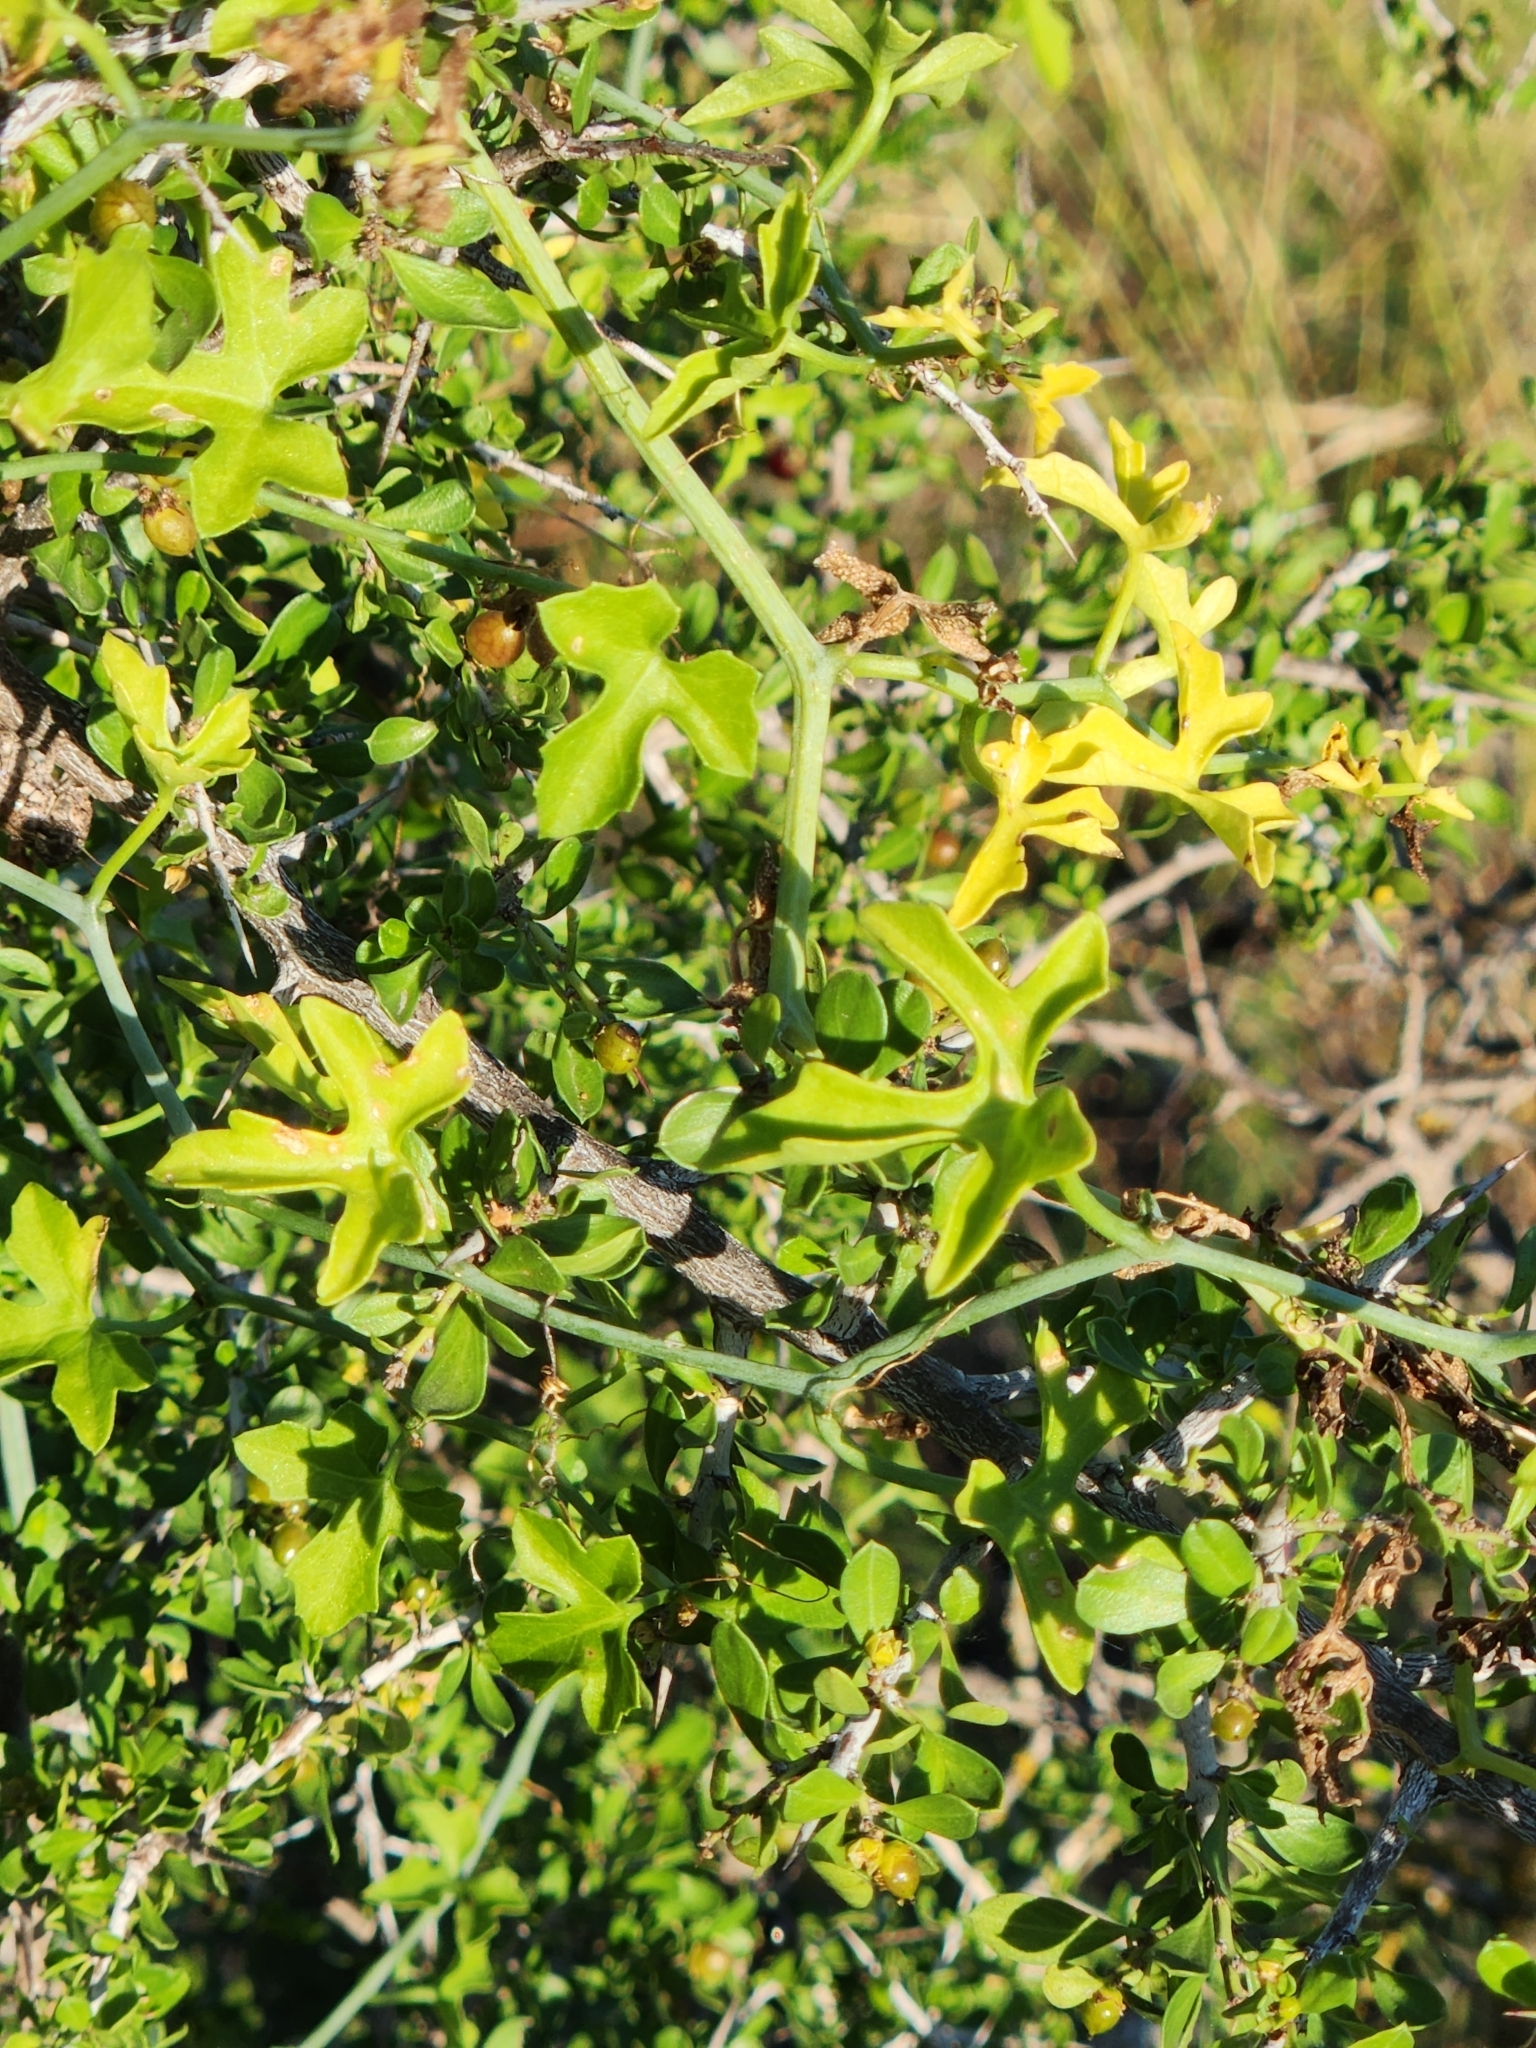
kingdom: Plantae
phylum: Tracheophyta
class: Magnoliopsida
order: Cucurbitales
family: Cucurbitaceae
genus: Ibervillea
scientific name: Ibervillea lindheimeri
